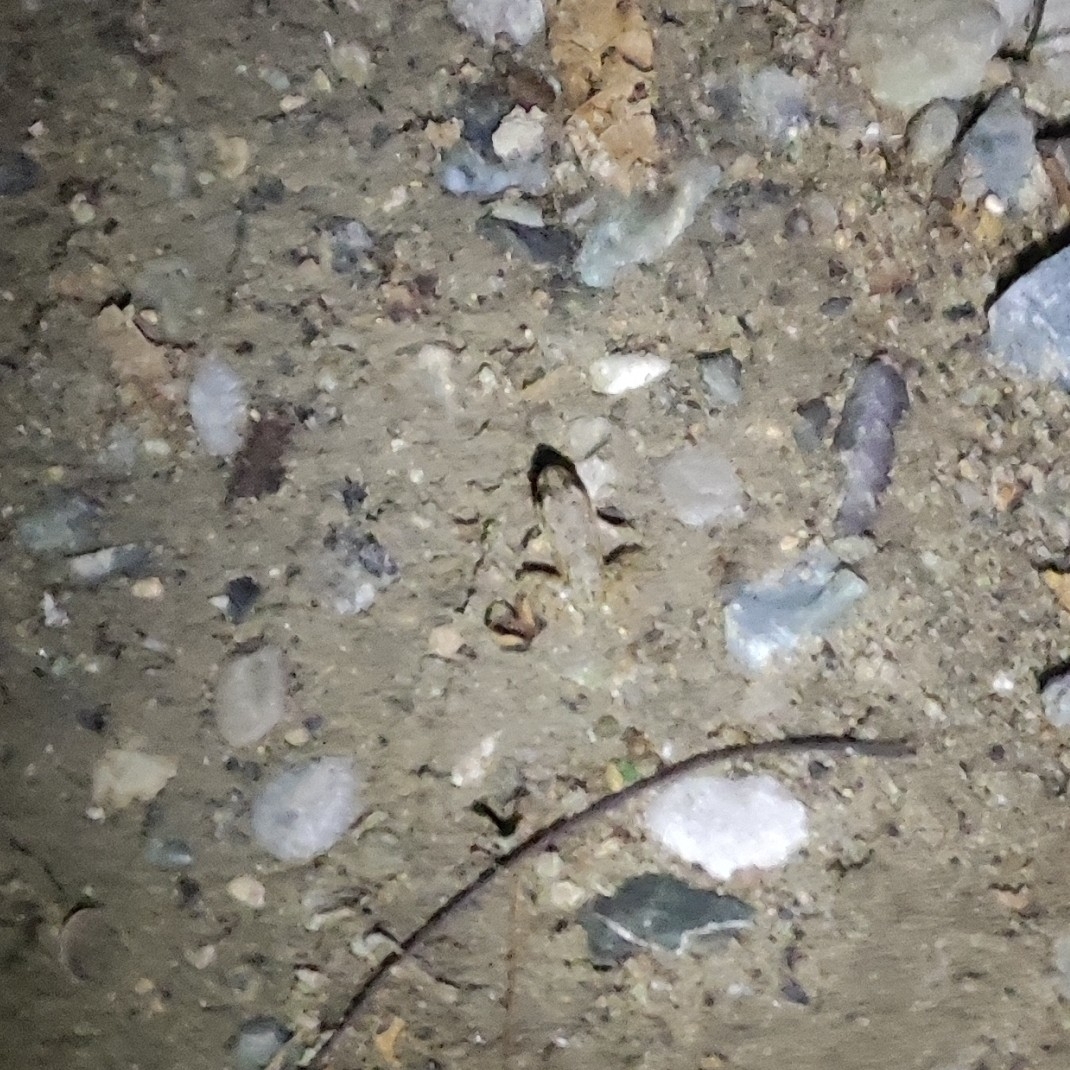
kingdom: Animalia
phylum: Chordata
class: Amphibia
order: Anura
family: Ranidae
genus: Pelophylax
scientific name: Pelophylax ridibundus
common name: Marsh frog
